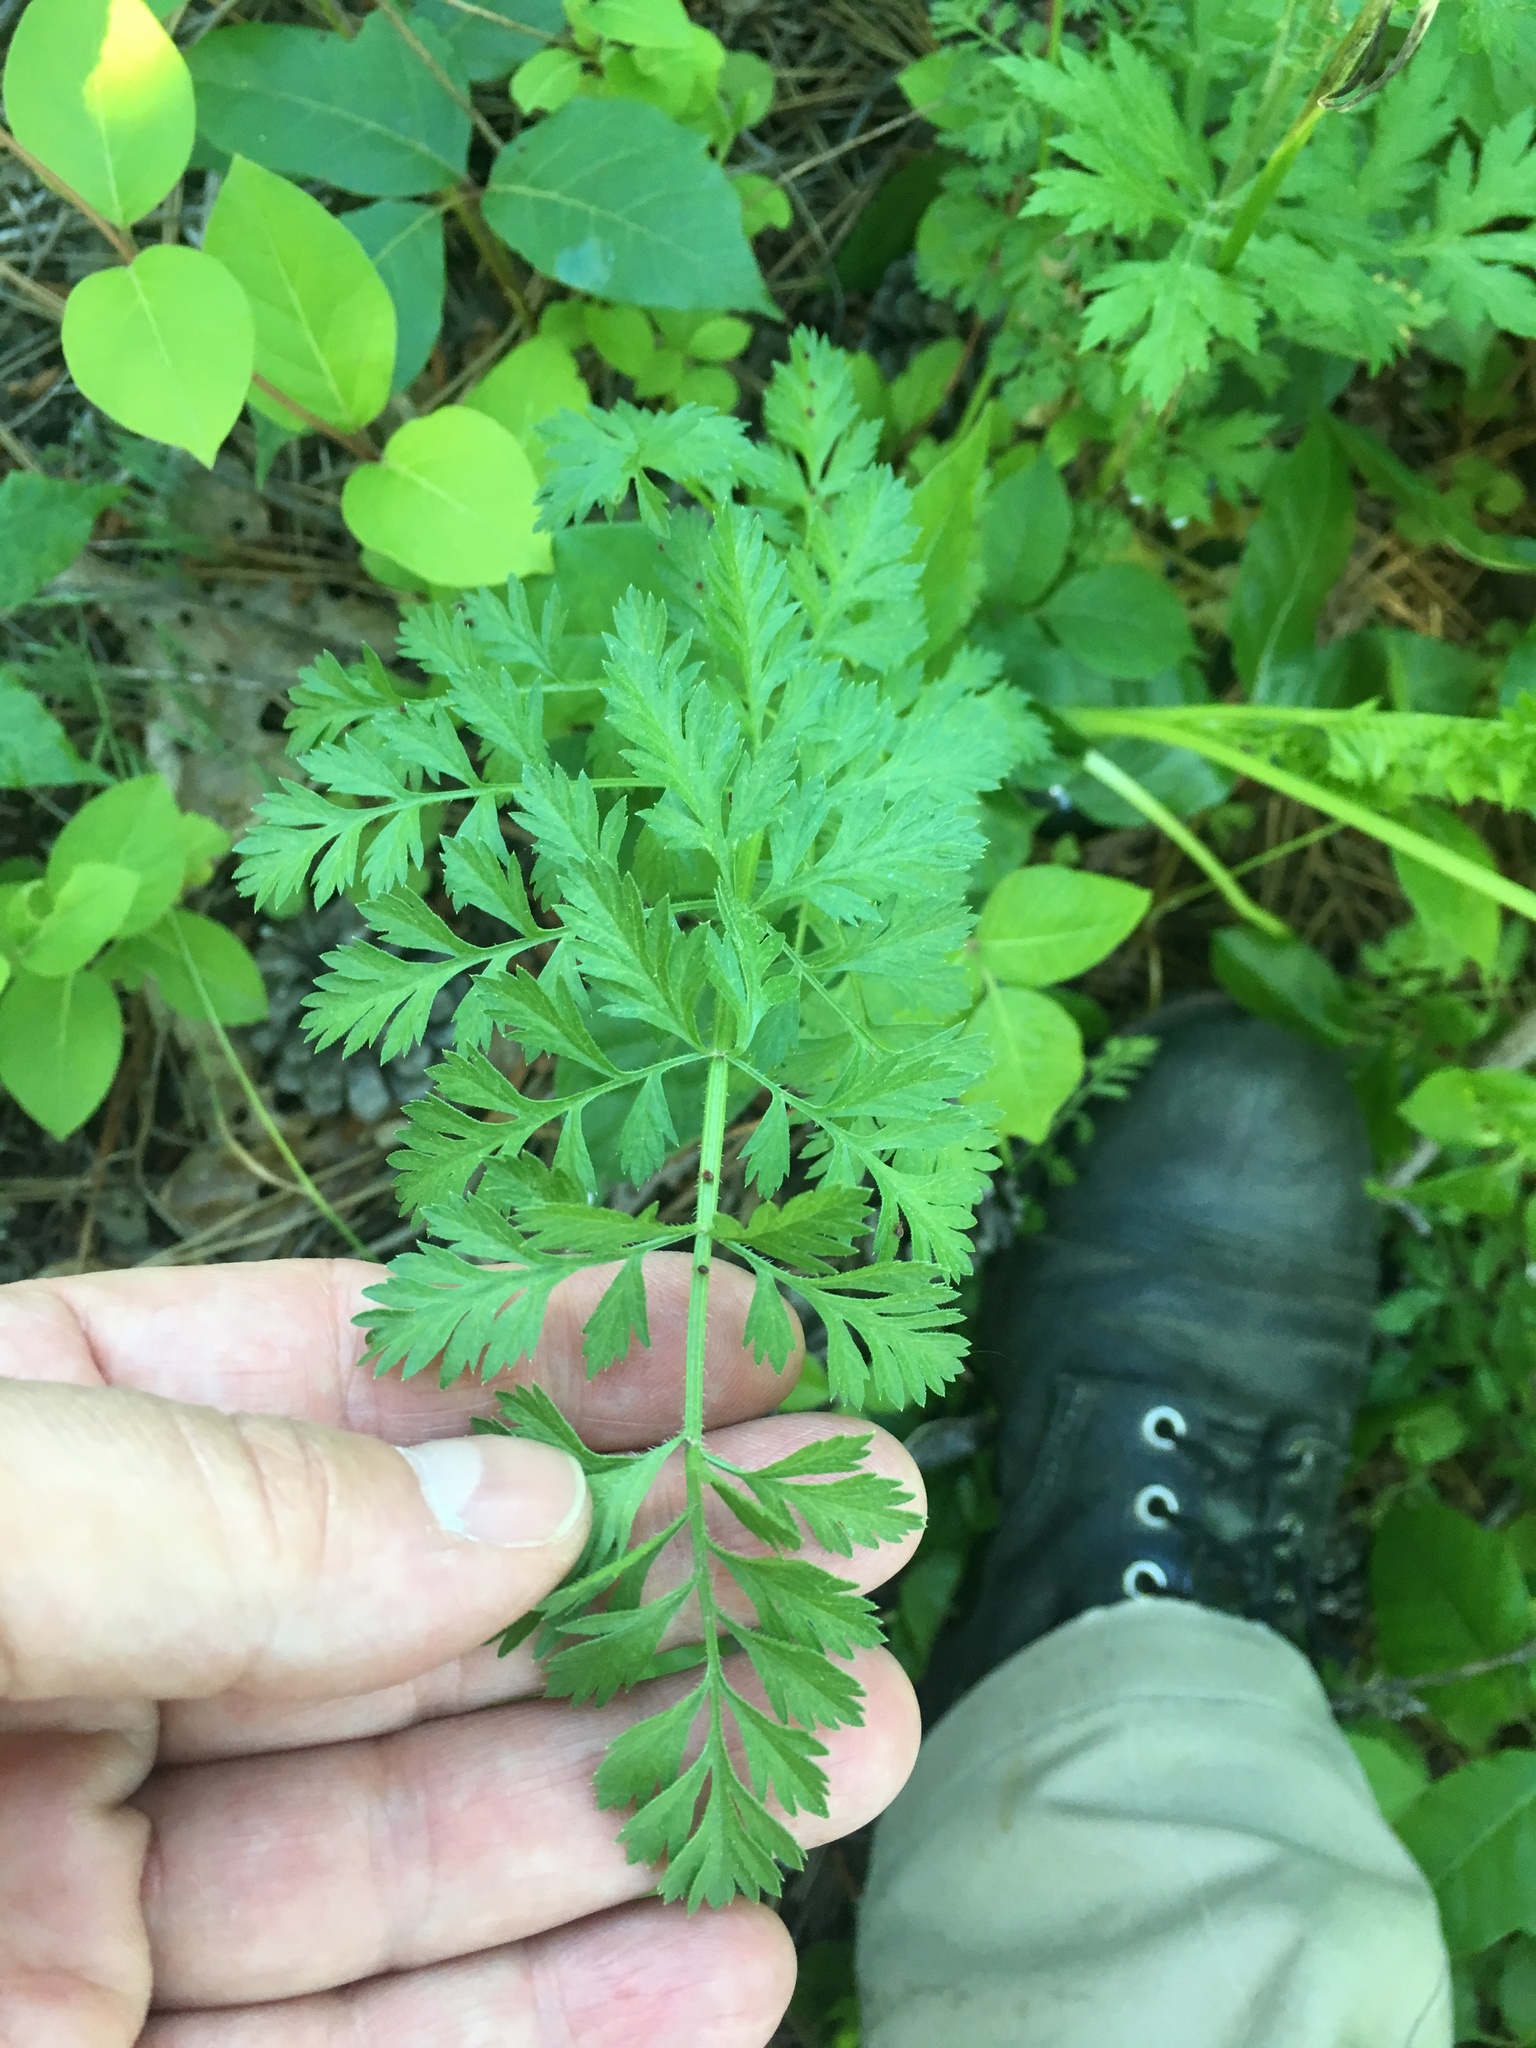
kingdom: Plantae
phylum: Tracheophyta
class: Magnoliopsida
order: Apiales
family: Apiaceae
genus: Daucus
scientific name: Daucus carota
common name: Wild carrot
